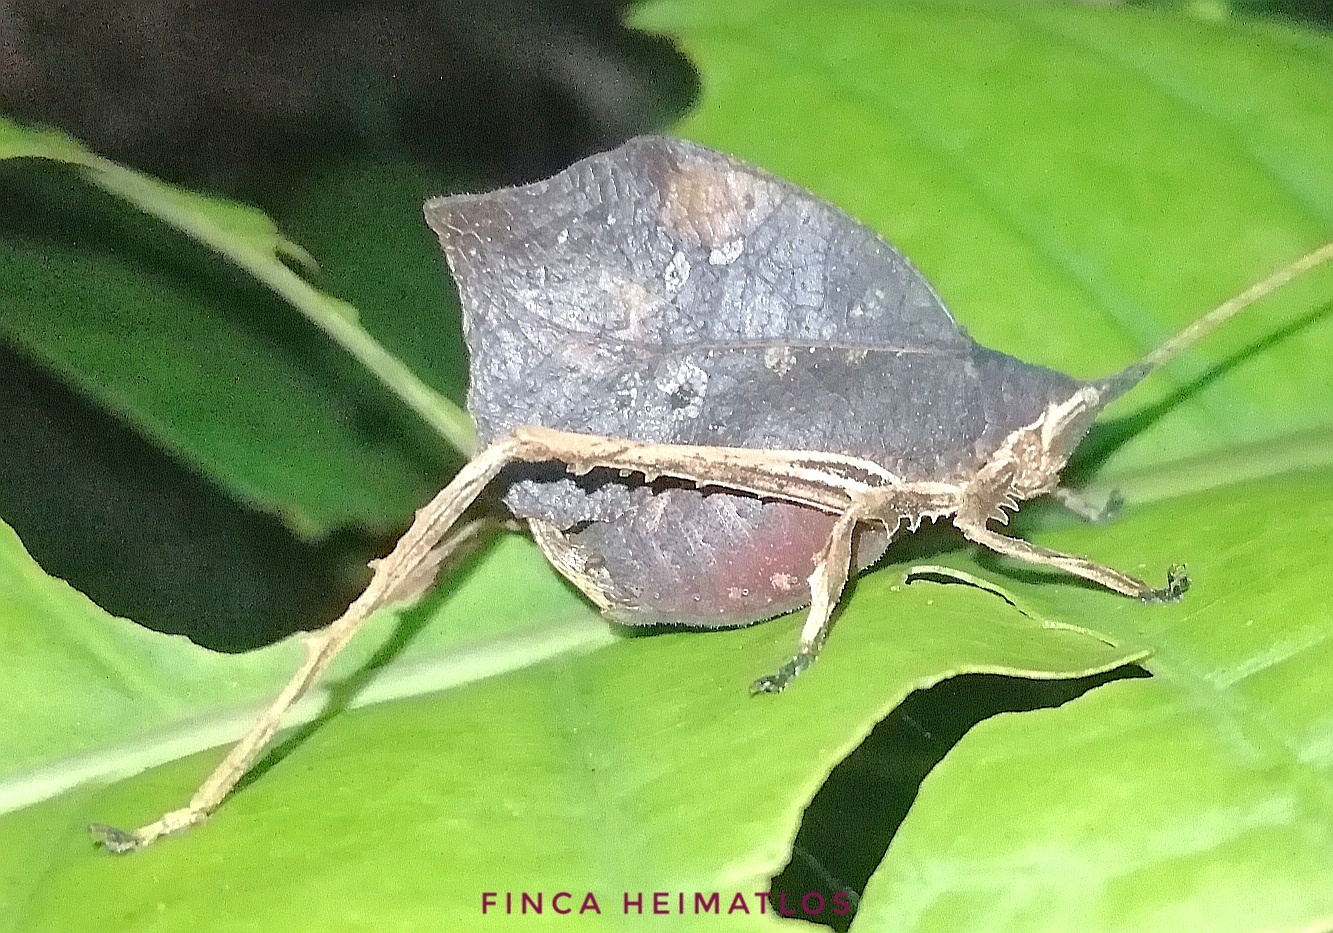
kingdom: Animalia
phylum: Arthropoda
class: Insecta
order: Orthoptera
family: Tettigoniidae
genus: Typophyllum
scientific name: Typophyllum morrisi
